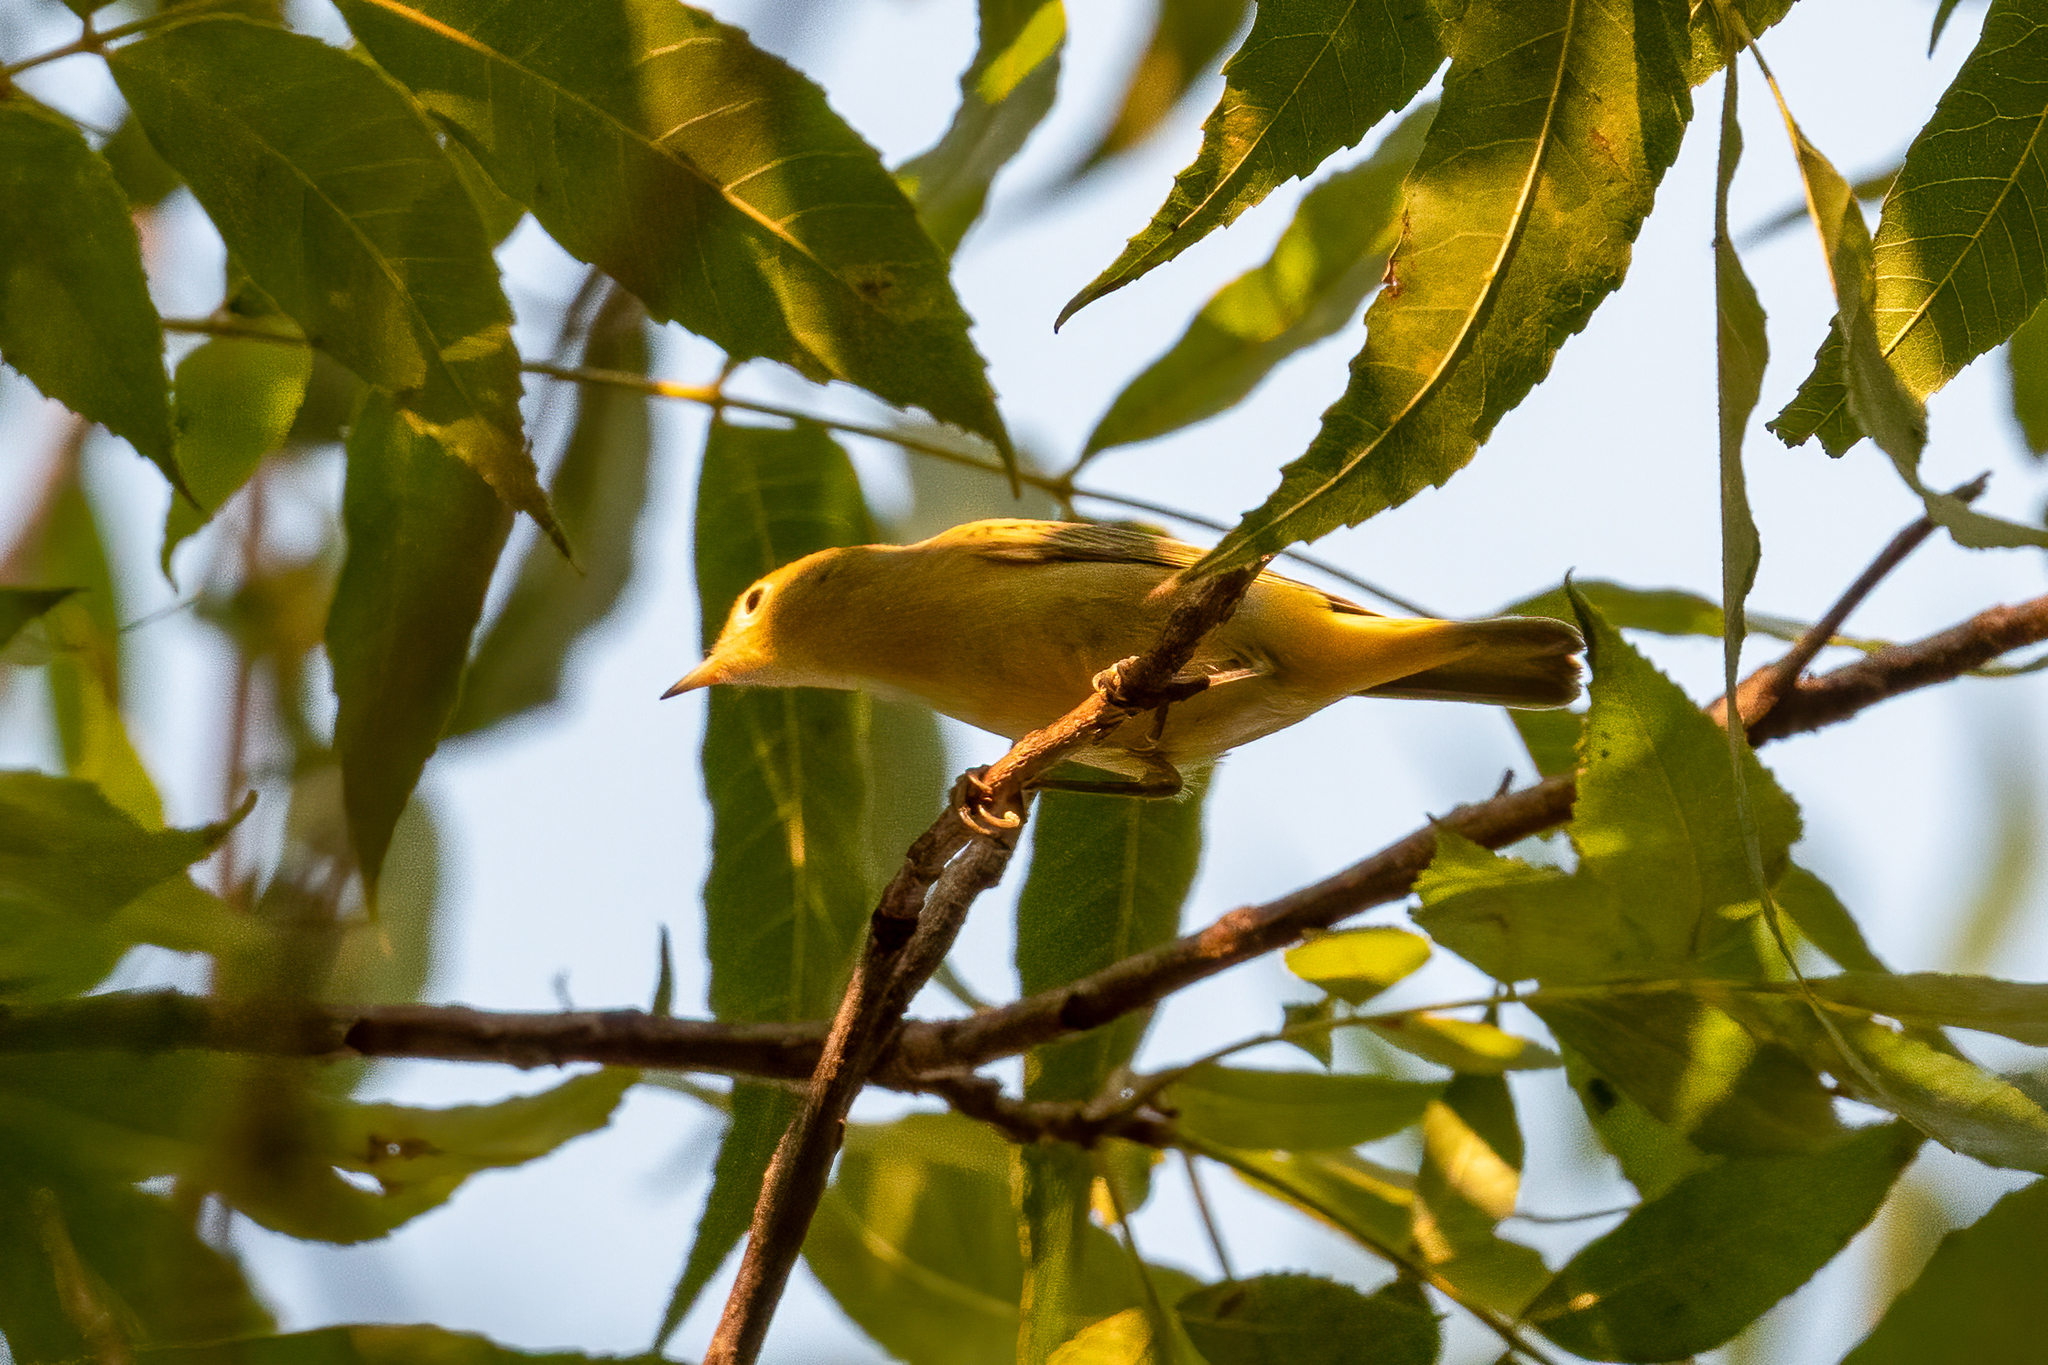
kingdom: Animalia
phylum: Chordata
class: Aves
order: Passeriformes
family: Parulidae
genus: Setophaga
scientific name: Setophaga petechia
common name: Yellow warbler
